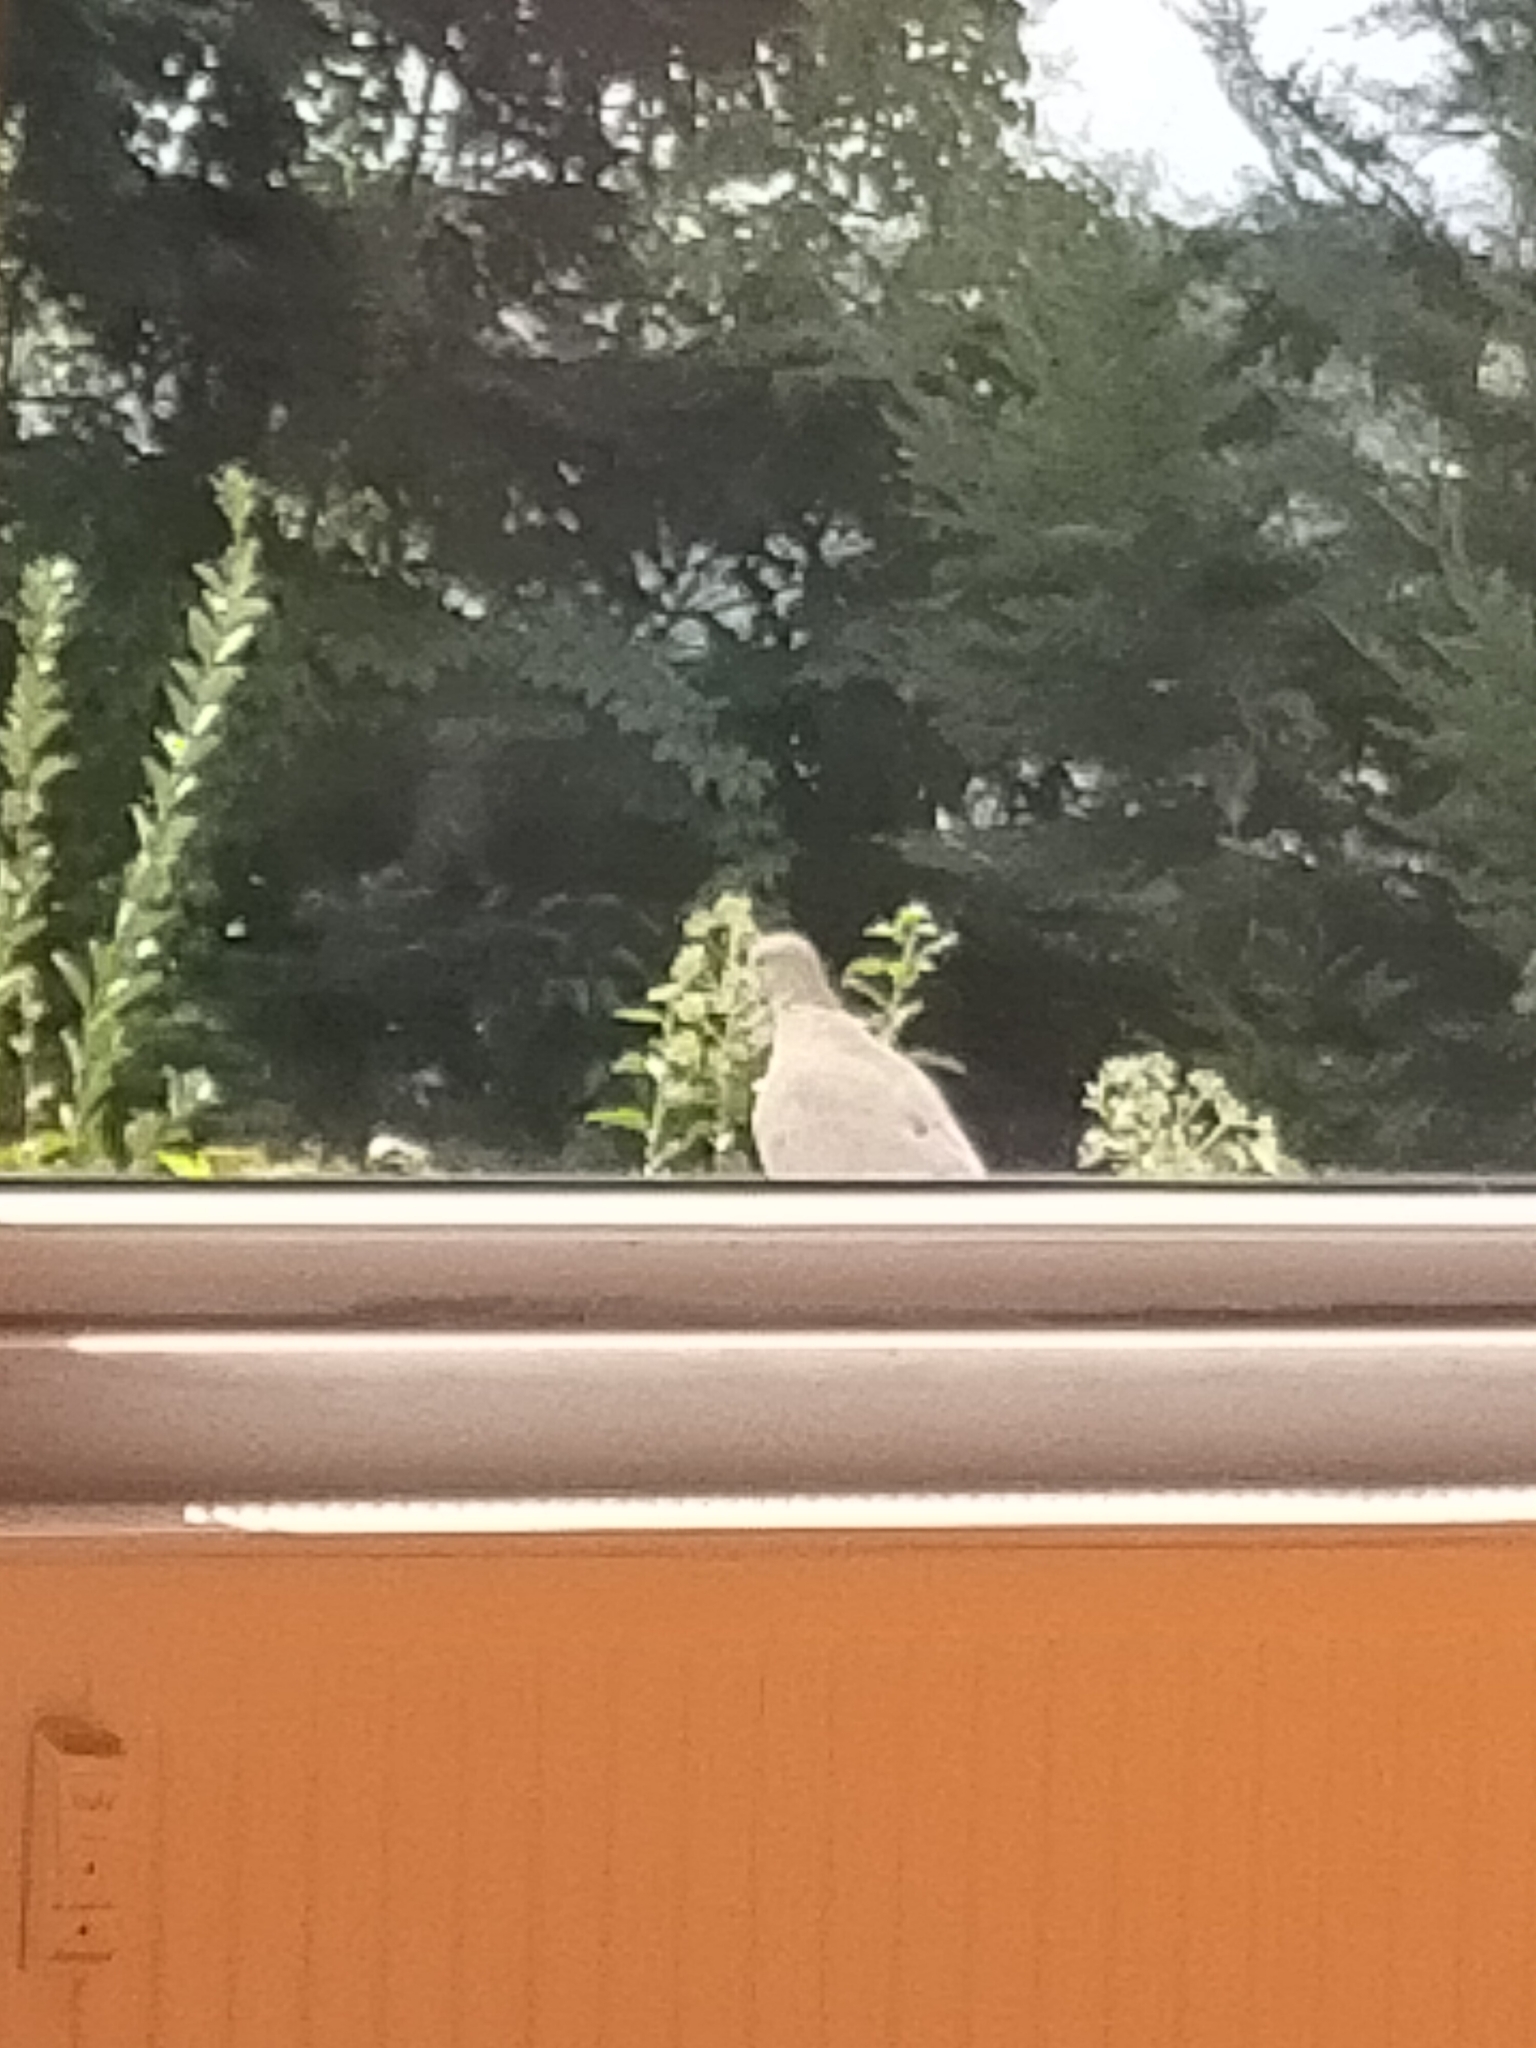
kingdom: Animalia
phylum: Chordata
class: Aves
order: Columbiformes
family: Columbidae
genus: Streptopelia
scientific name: Streptopelia decaocto
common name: Eurasian collared dove
